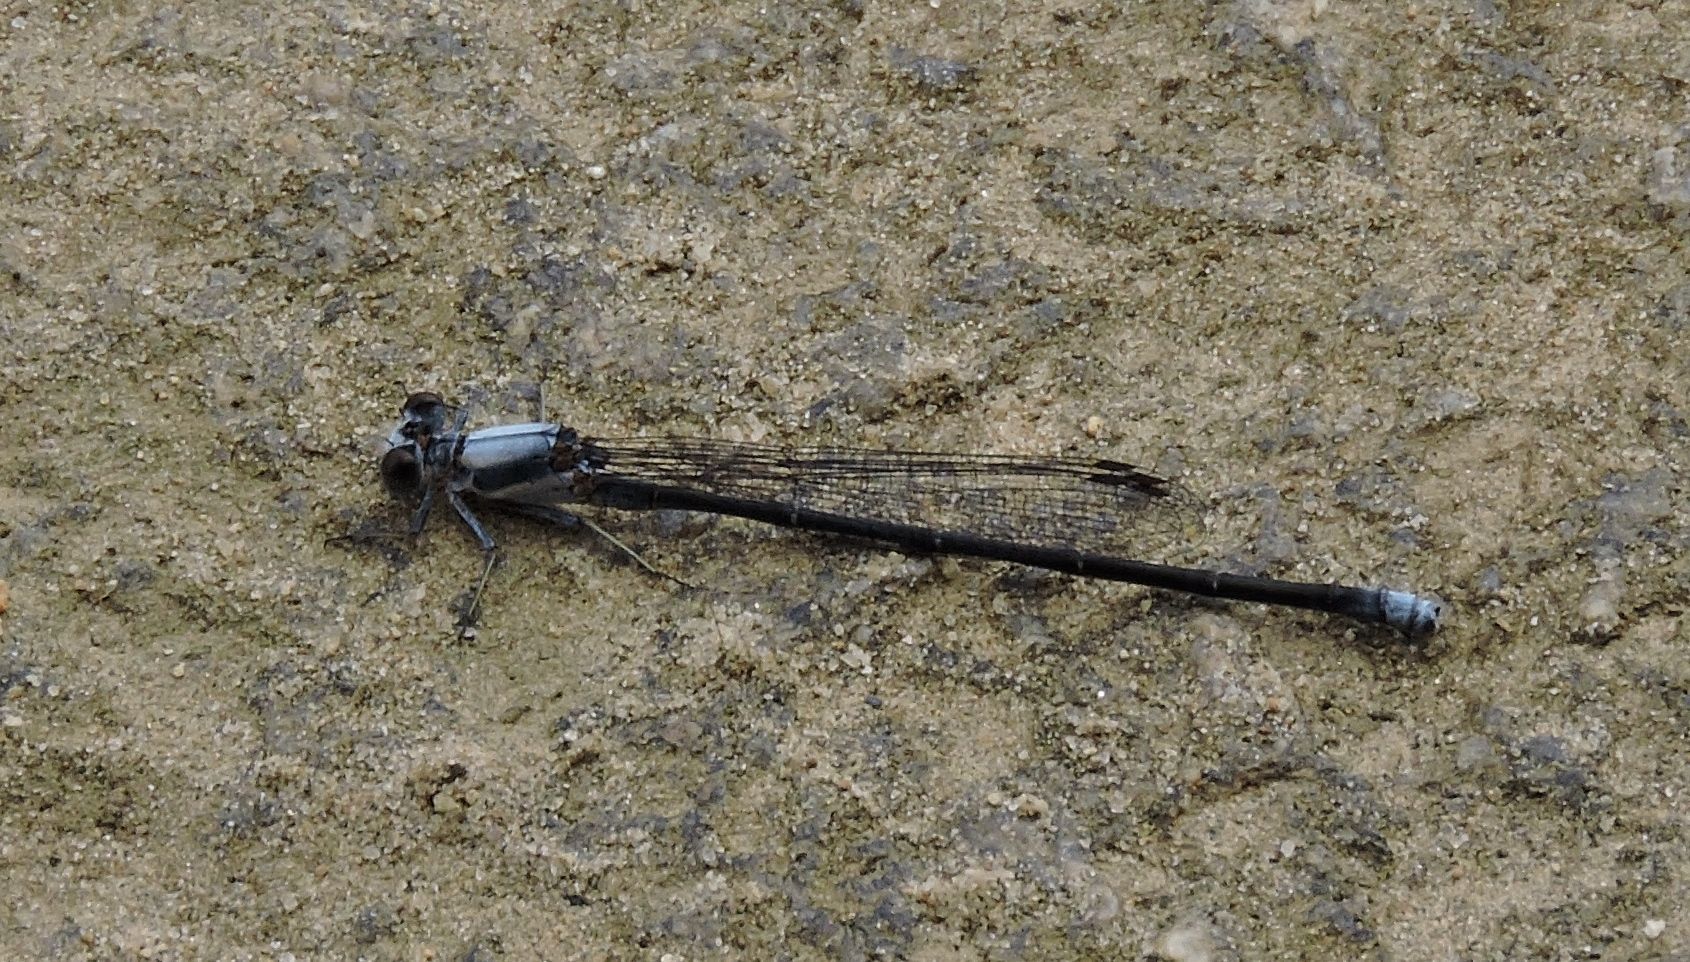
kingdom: Animalia
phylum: Arthropoda
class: Insecta
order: Odonata
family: Coenagrionidae
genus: Argia
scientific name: Argia moesta
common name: Powdered dancer
